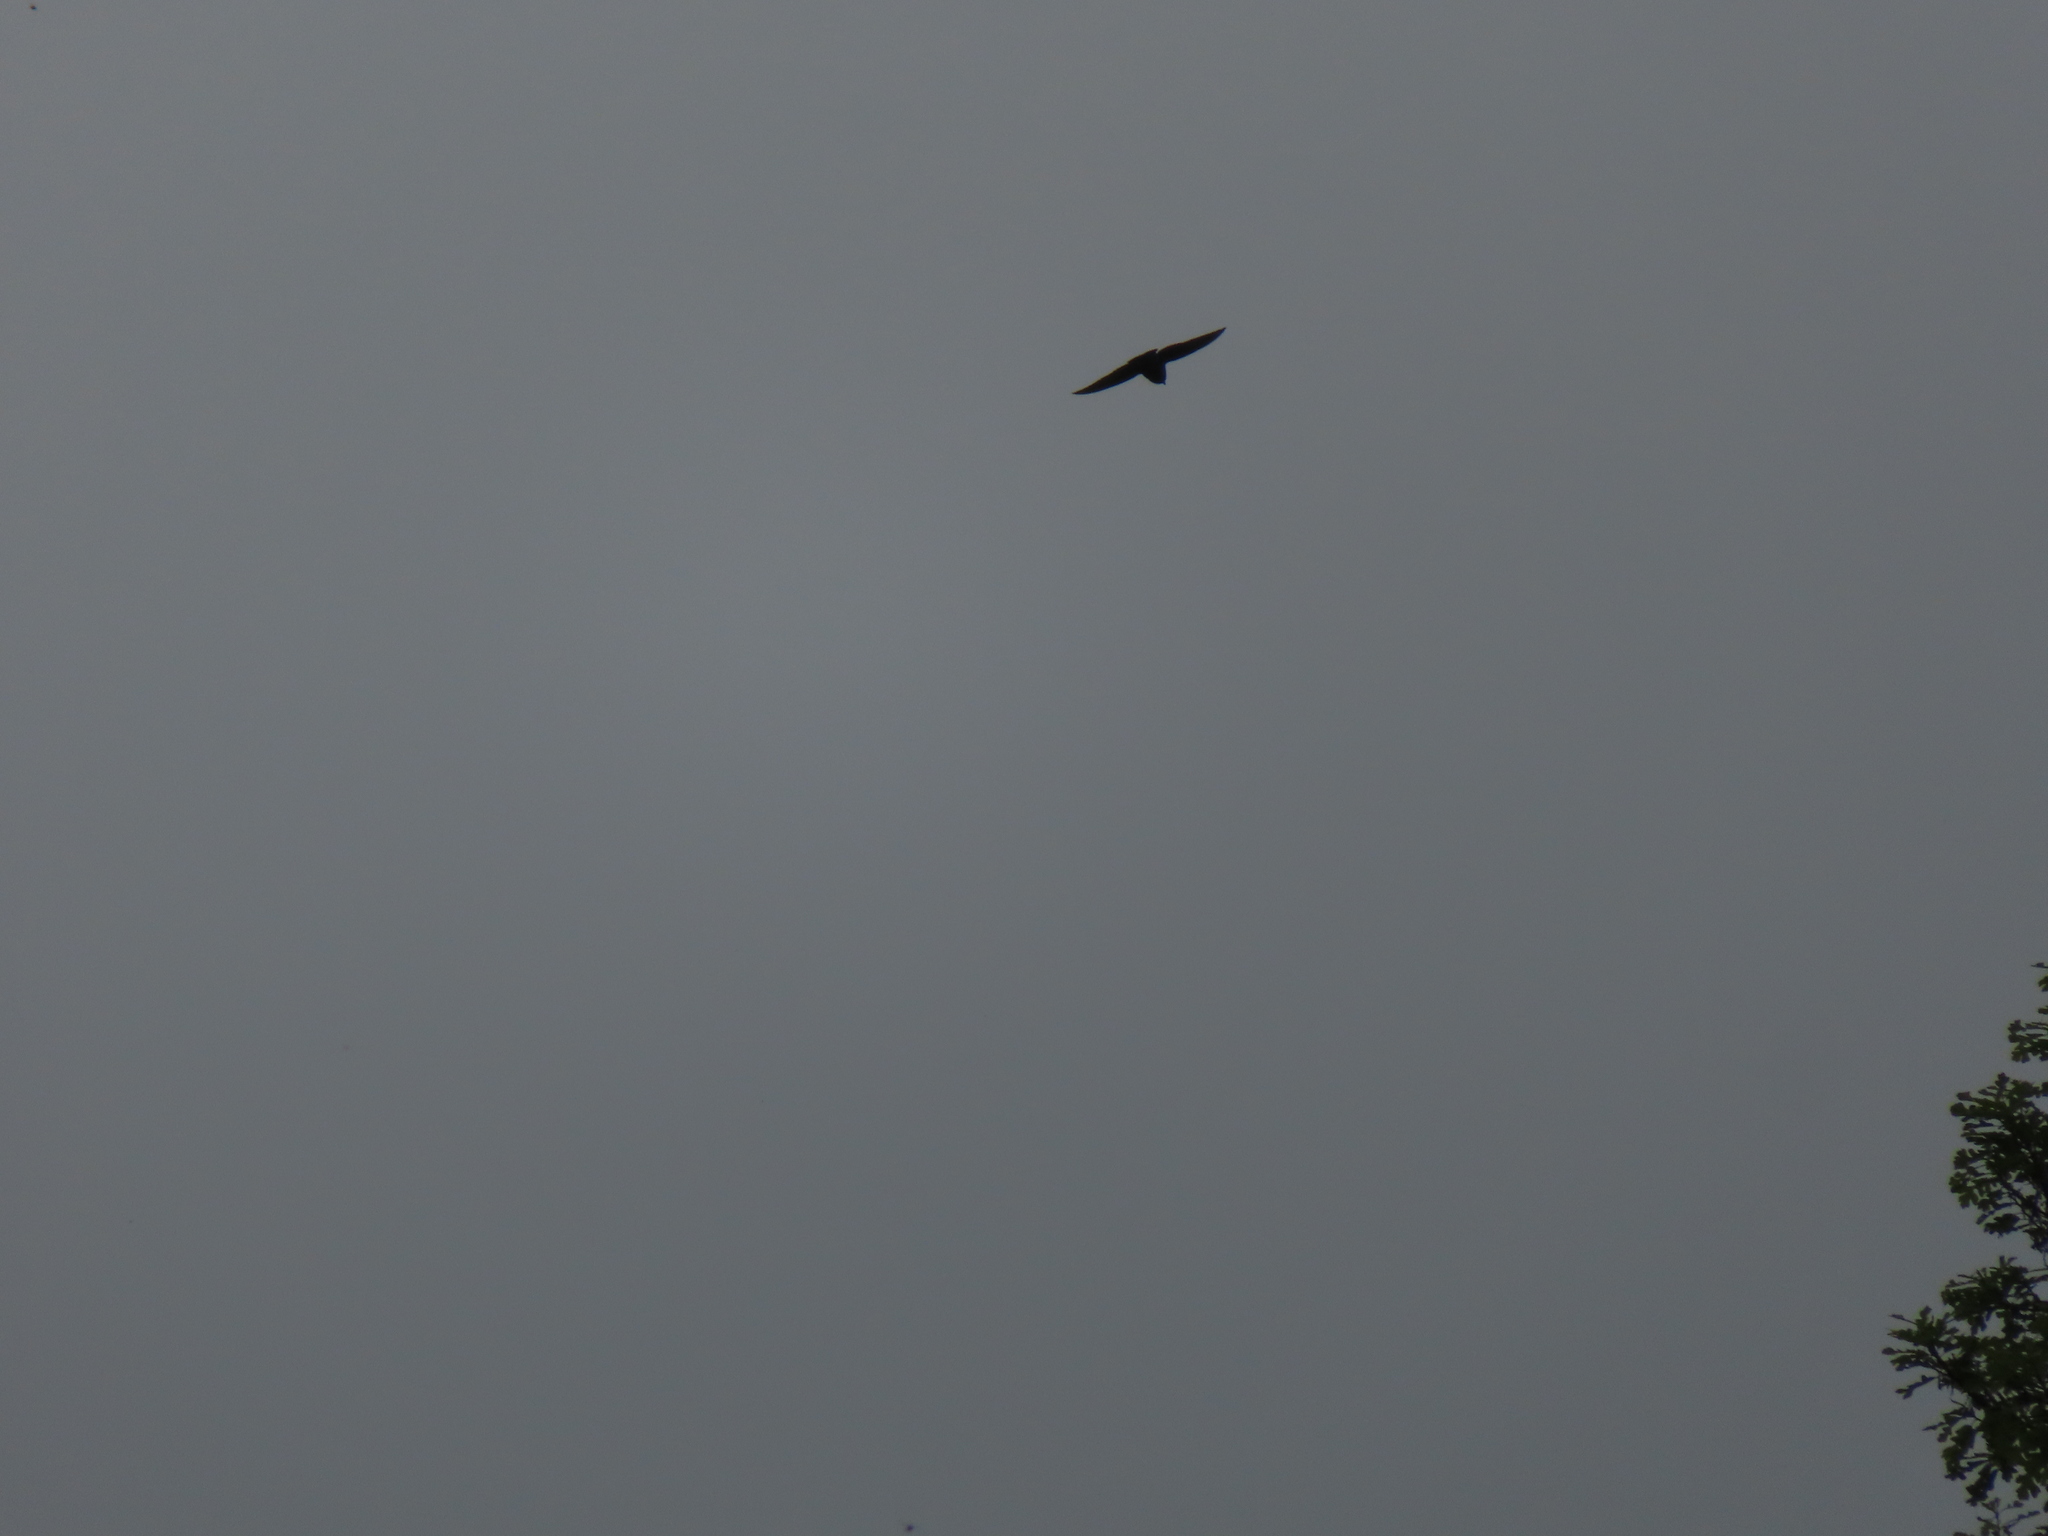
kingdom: Animalia
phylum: Chordata
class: Aves
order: Apodiformes
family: Apodidae
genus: Chaetura
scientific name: Chaetura pelagica
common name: Chimney swift
